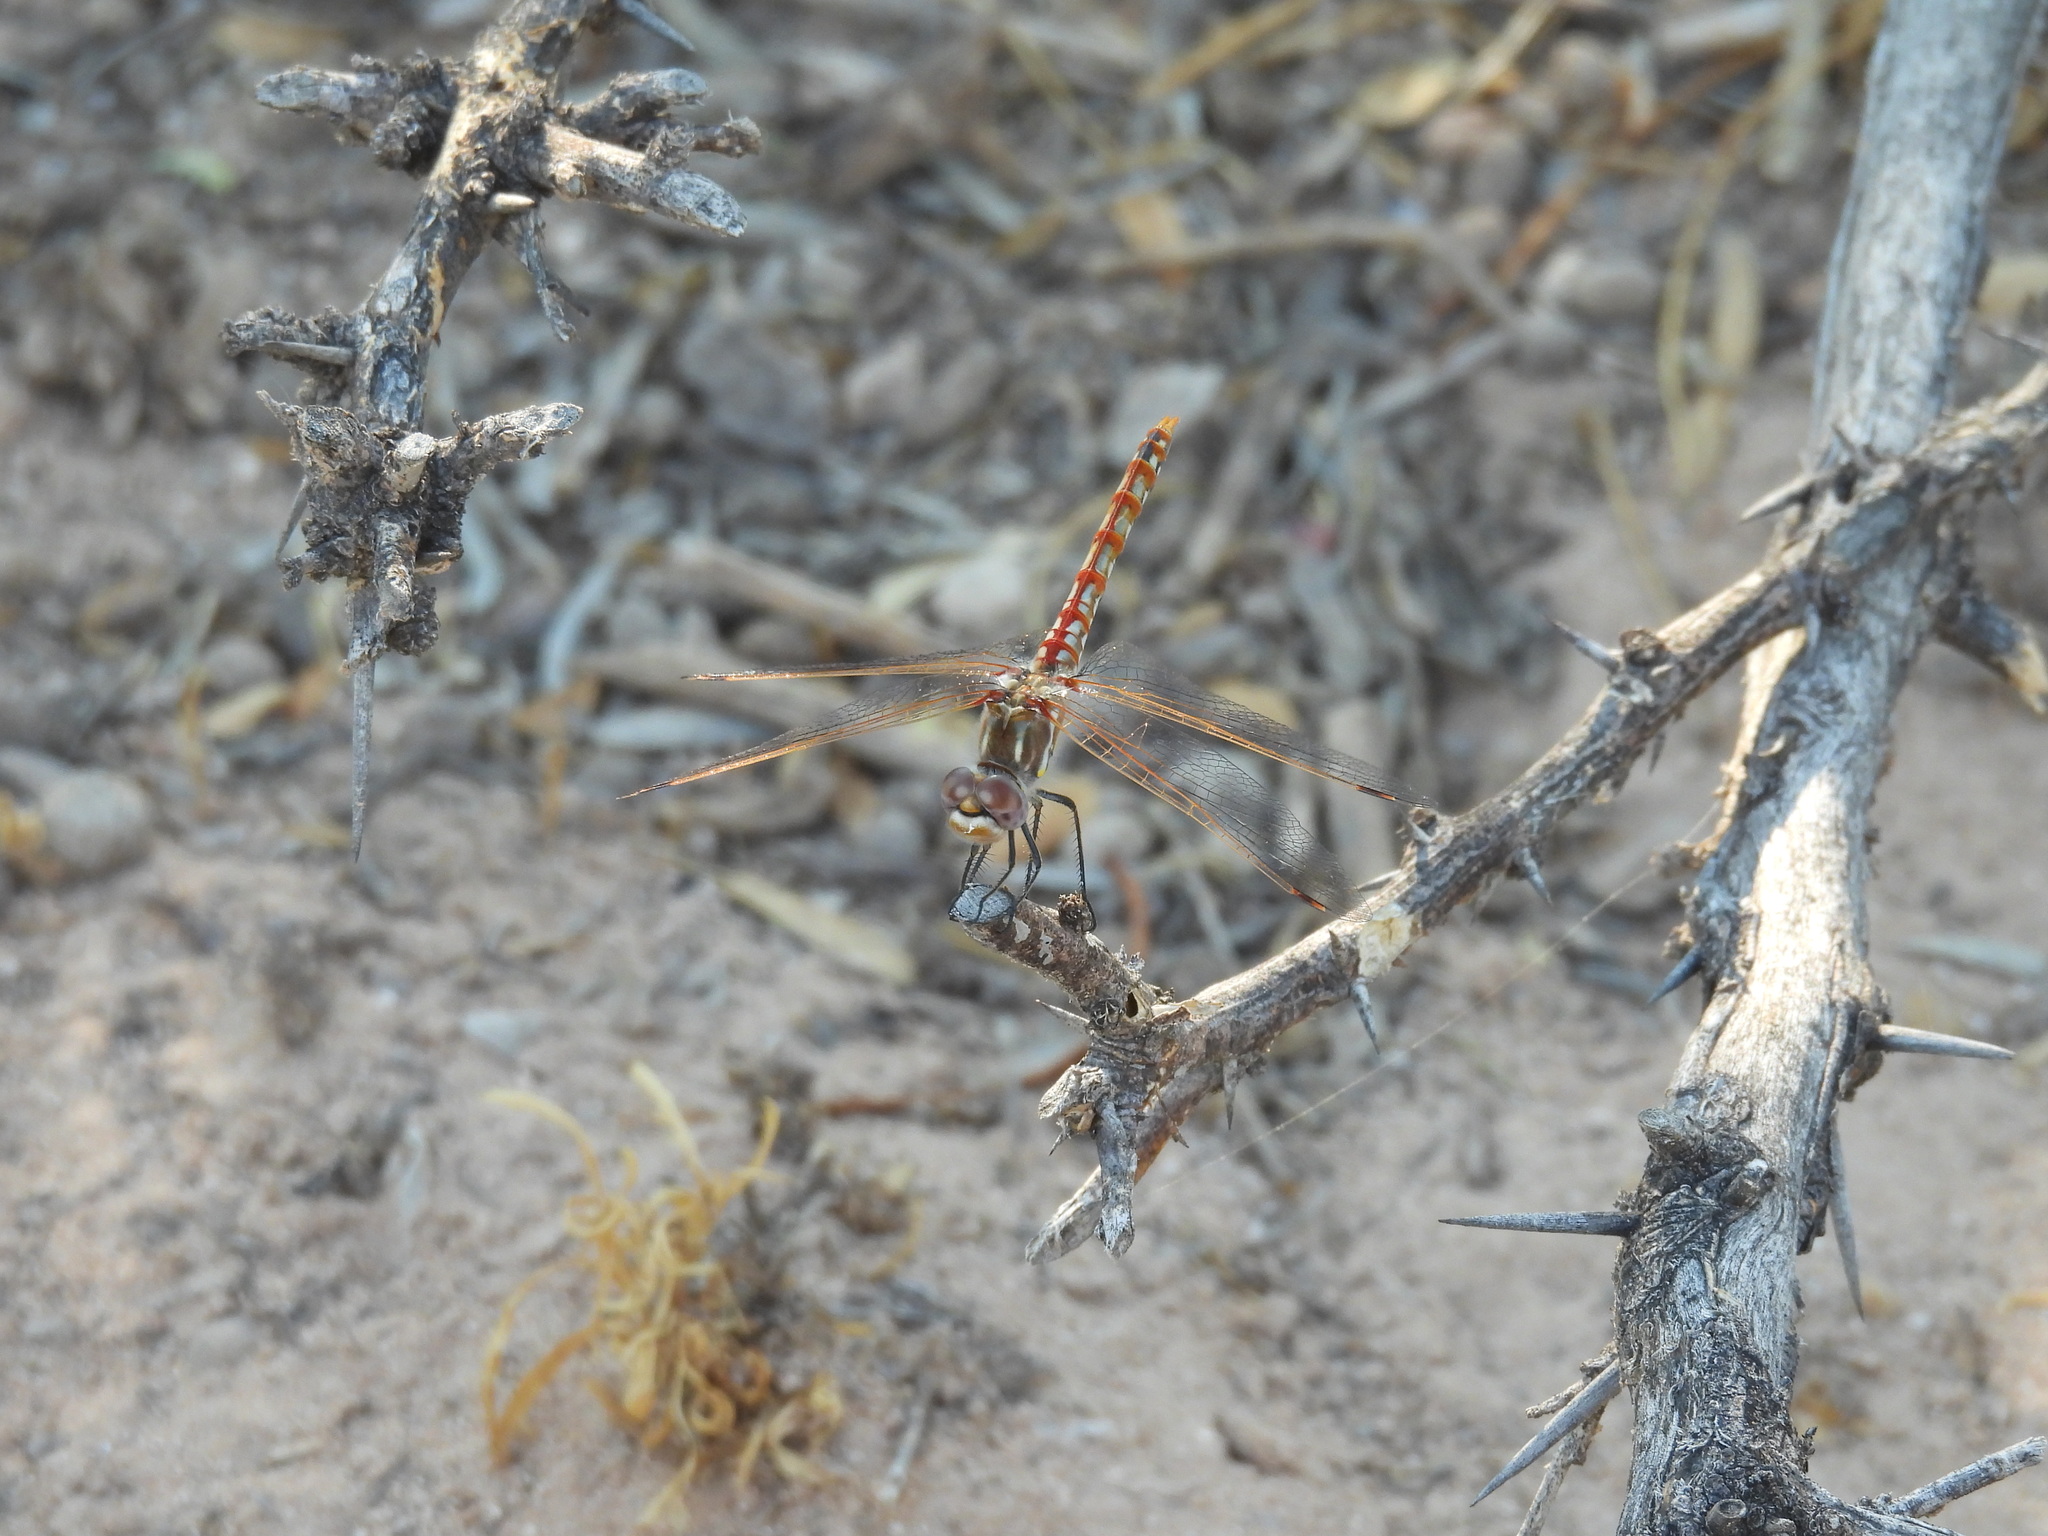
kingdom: Animalia
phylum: Arthropoda
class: Insecta
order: Odonata
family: Libellulidae
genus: Sympetrum
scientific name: Sympetrum corruptum
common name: Variegated meadowhawk
